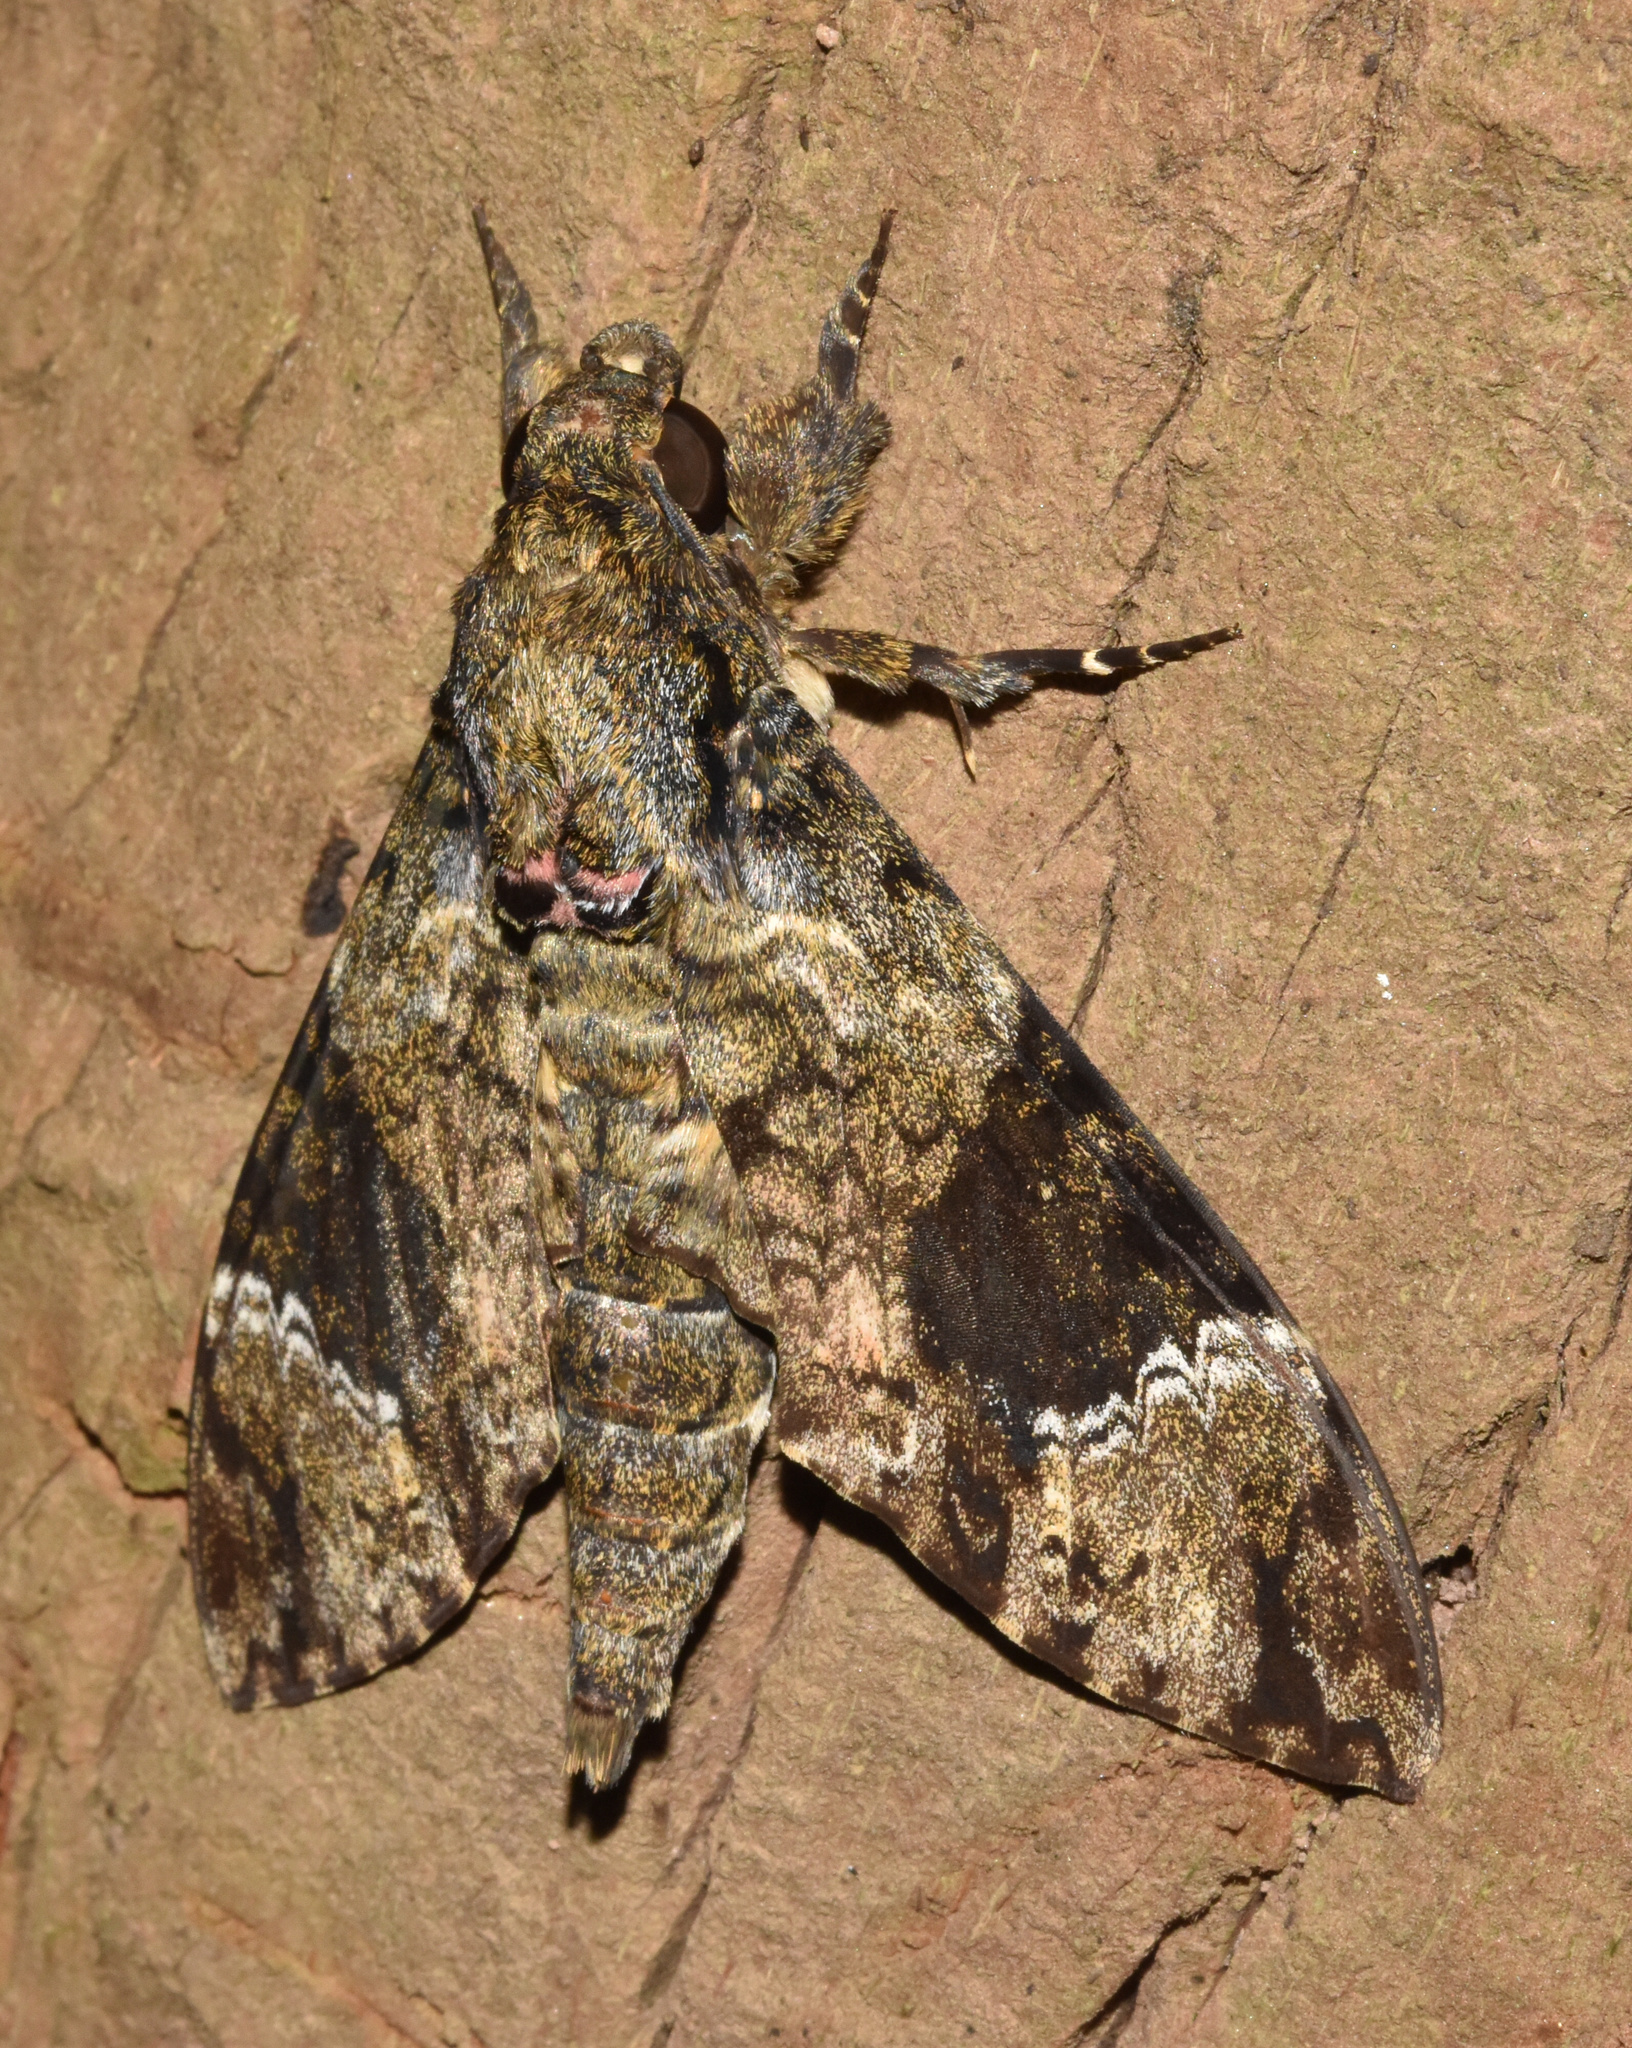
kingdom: Animalia
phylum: Arthropoda
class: Insecta
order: Lepidoptera
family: Sphingidae
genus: Coelonia
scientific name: Coelonia fulvinotata
